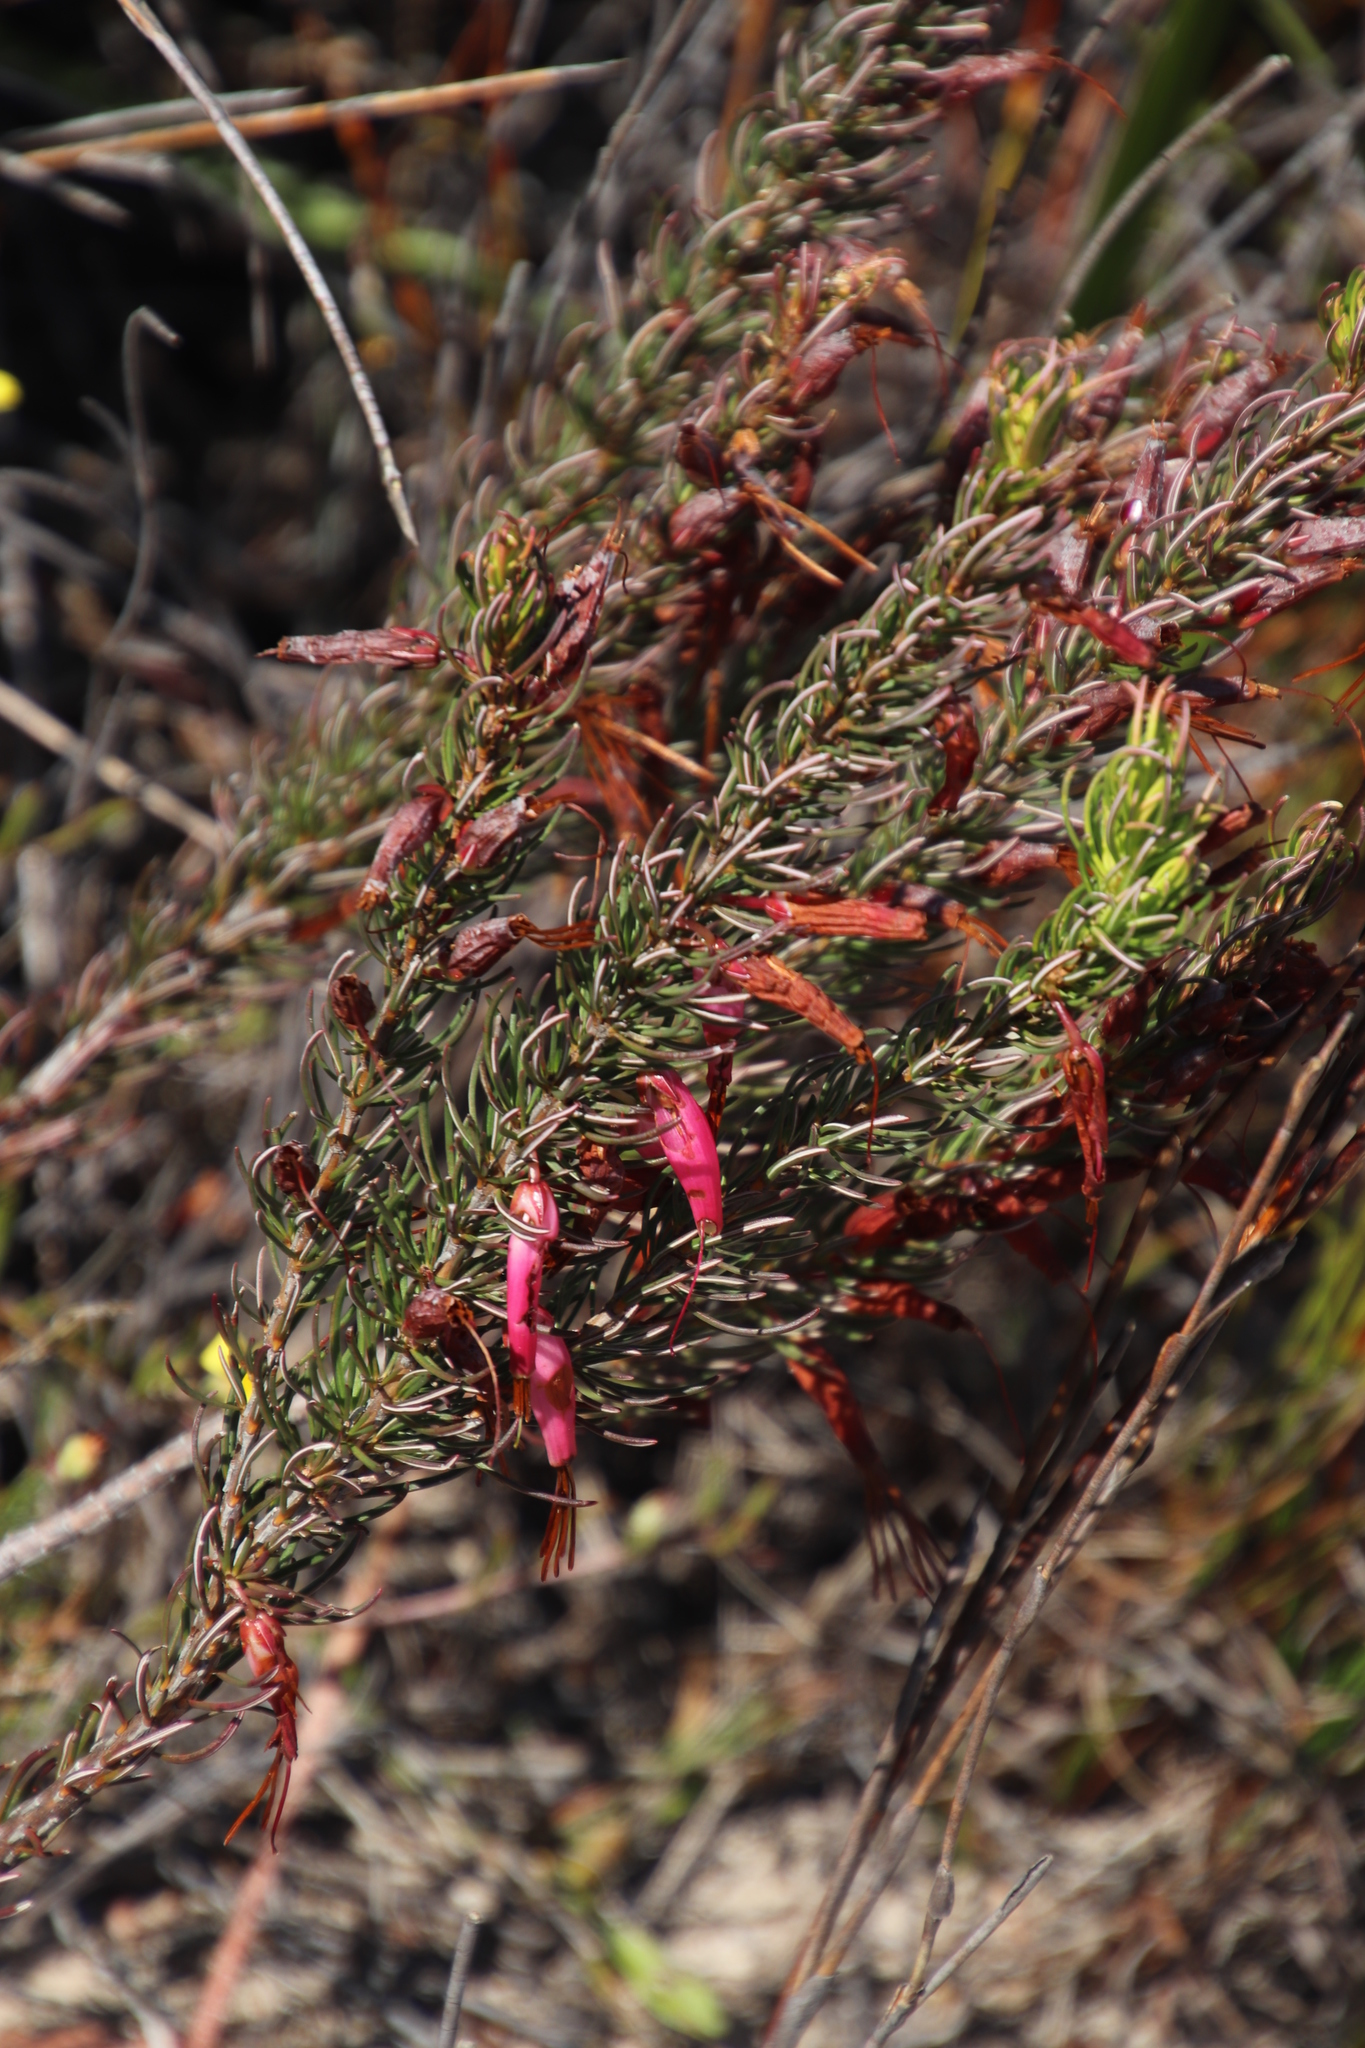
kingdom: Plantae
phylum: Tracheophyta
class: Magnoliopsida
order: Ericales
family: Ericaceae
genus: Erica
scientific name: Erica plukenetii
